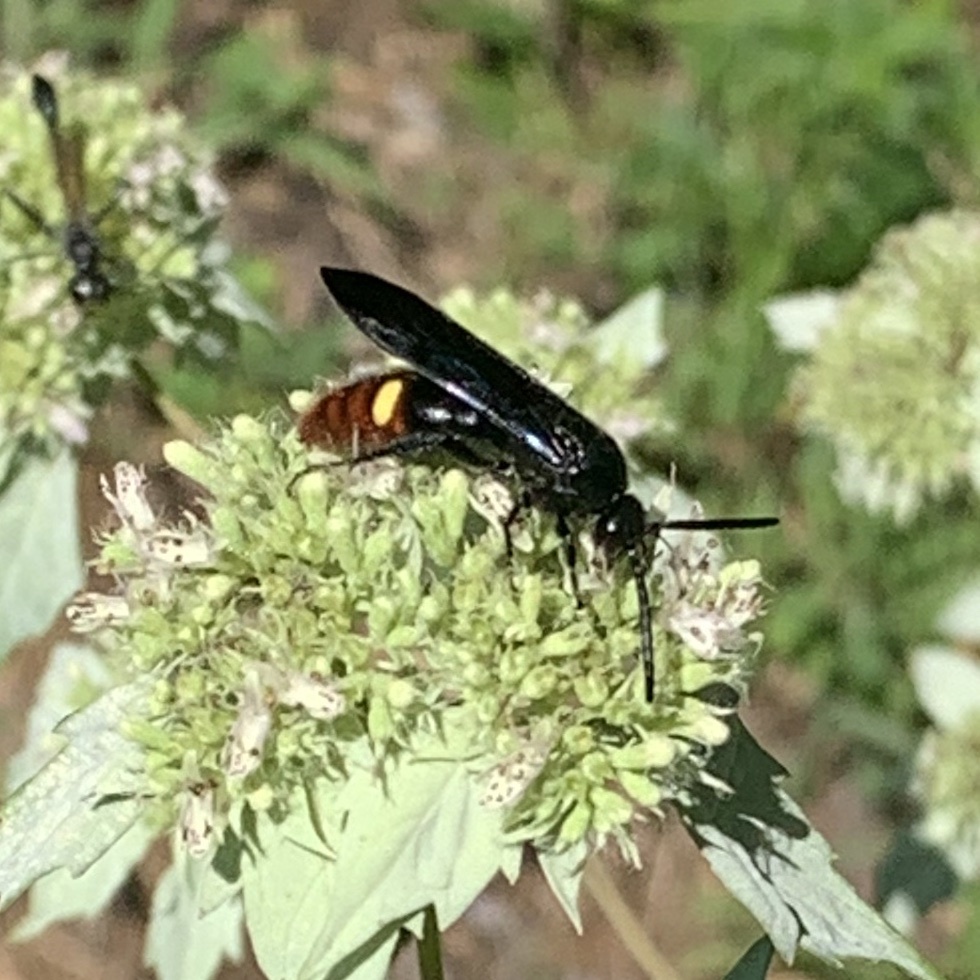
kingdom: Animalia
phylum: Arthropoda
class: Insecta
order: Hymenoptera
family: Scoliidae
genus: Scolia
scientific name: Scolia dubia
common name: Blue-winged scoliid wasp
